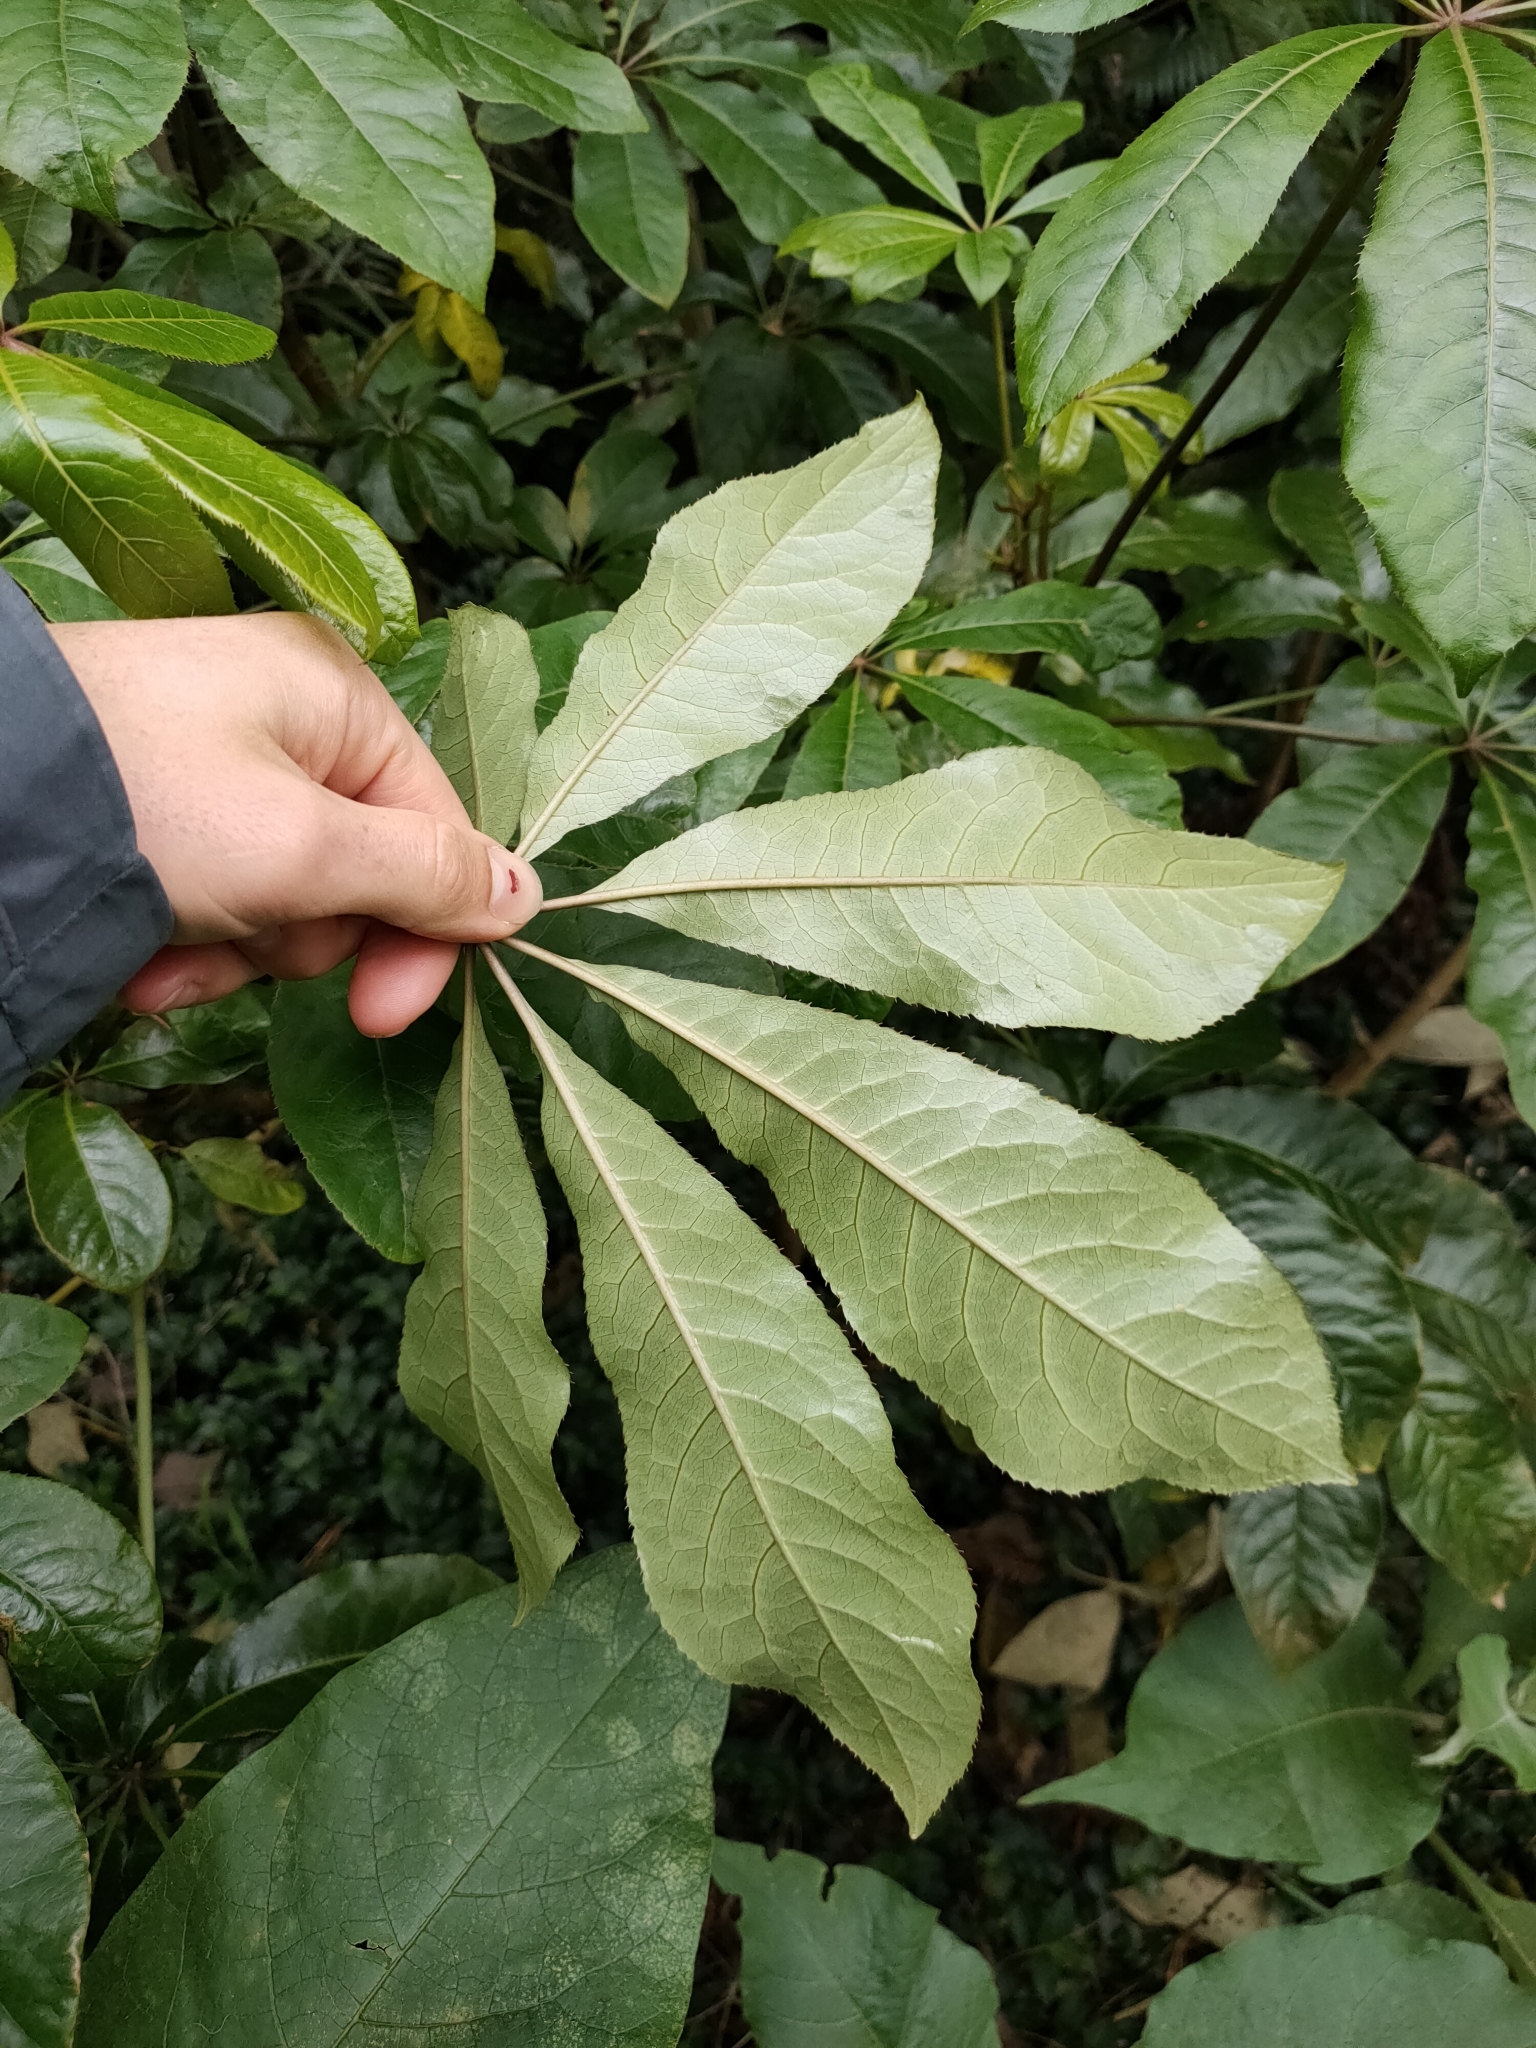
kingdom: Plantae
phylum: Tracheophyta
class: Magnoliopsida
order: Apiales
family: Araliaceae
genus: Schefflera
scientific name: Schefflera digitata
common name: Pate
